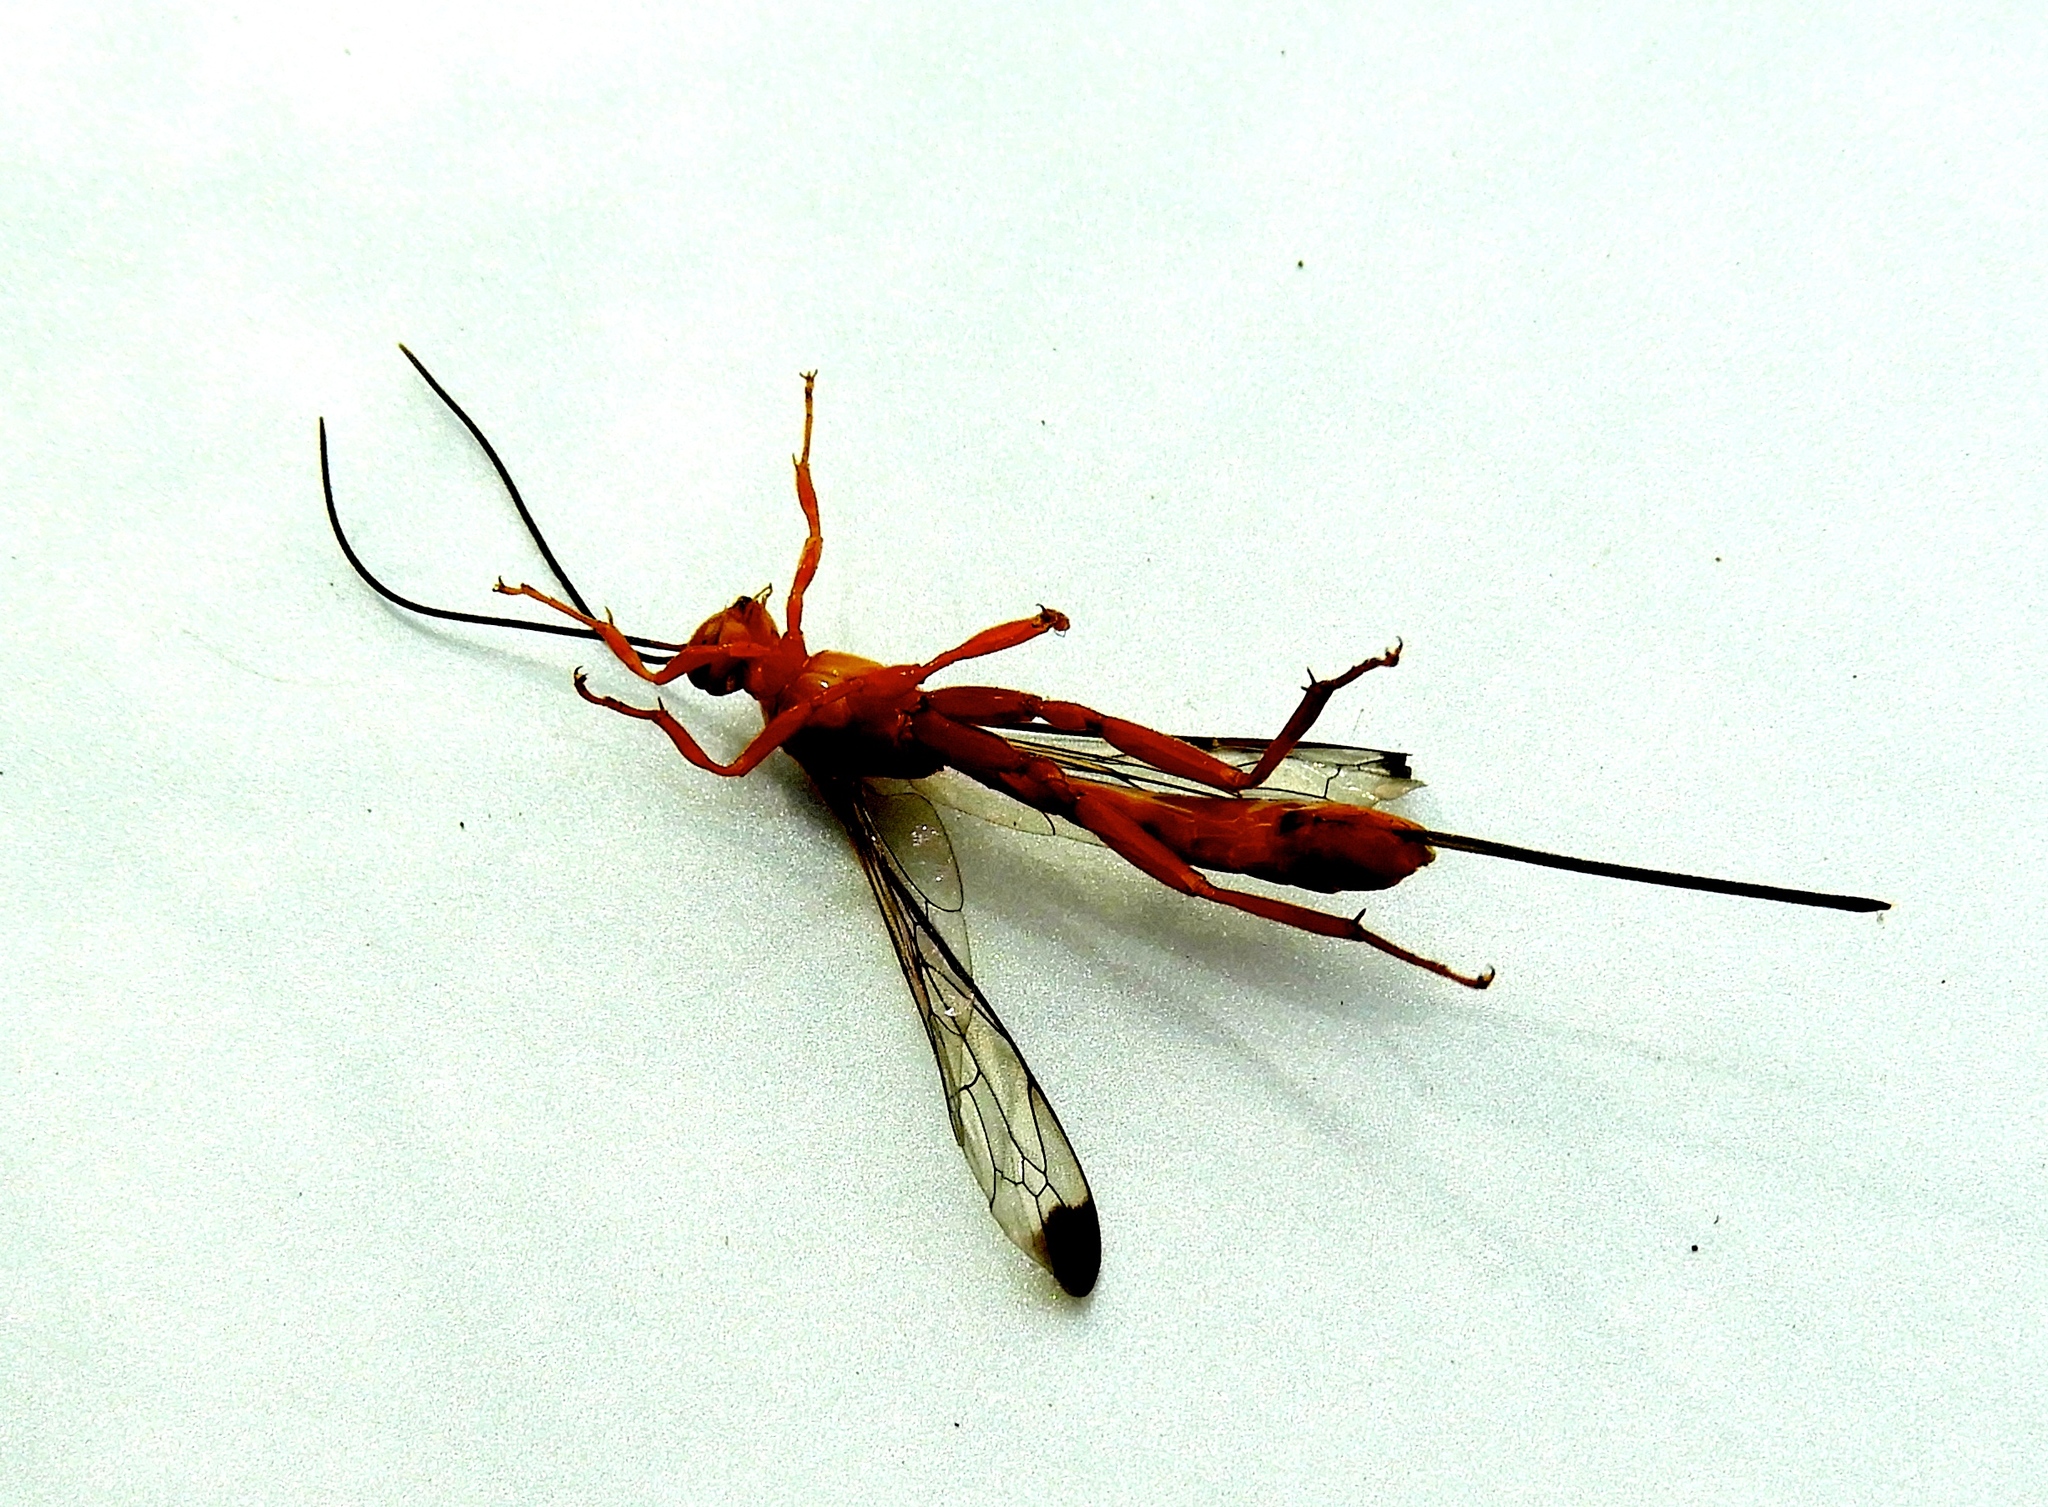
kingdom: Animalia
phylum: Arthropoda
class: Insecta
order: Hymenoptera
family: Ichneumonidae
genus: Labena
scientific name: Labena
